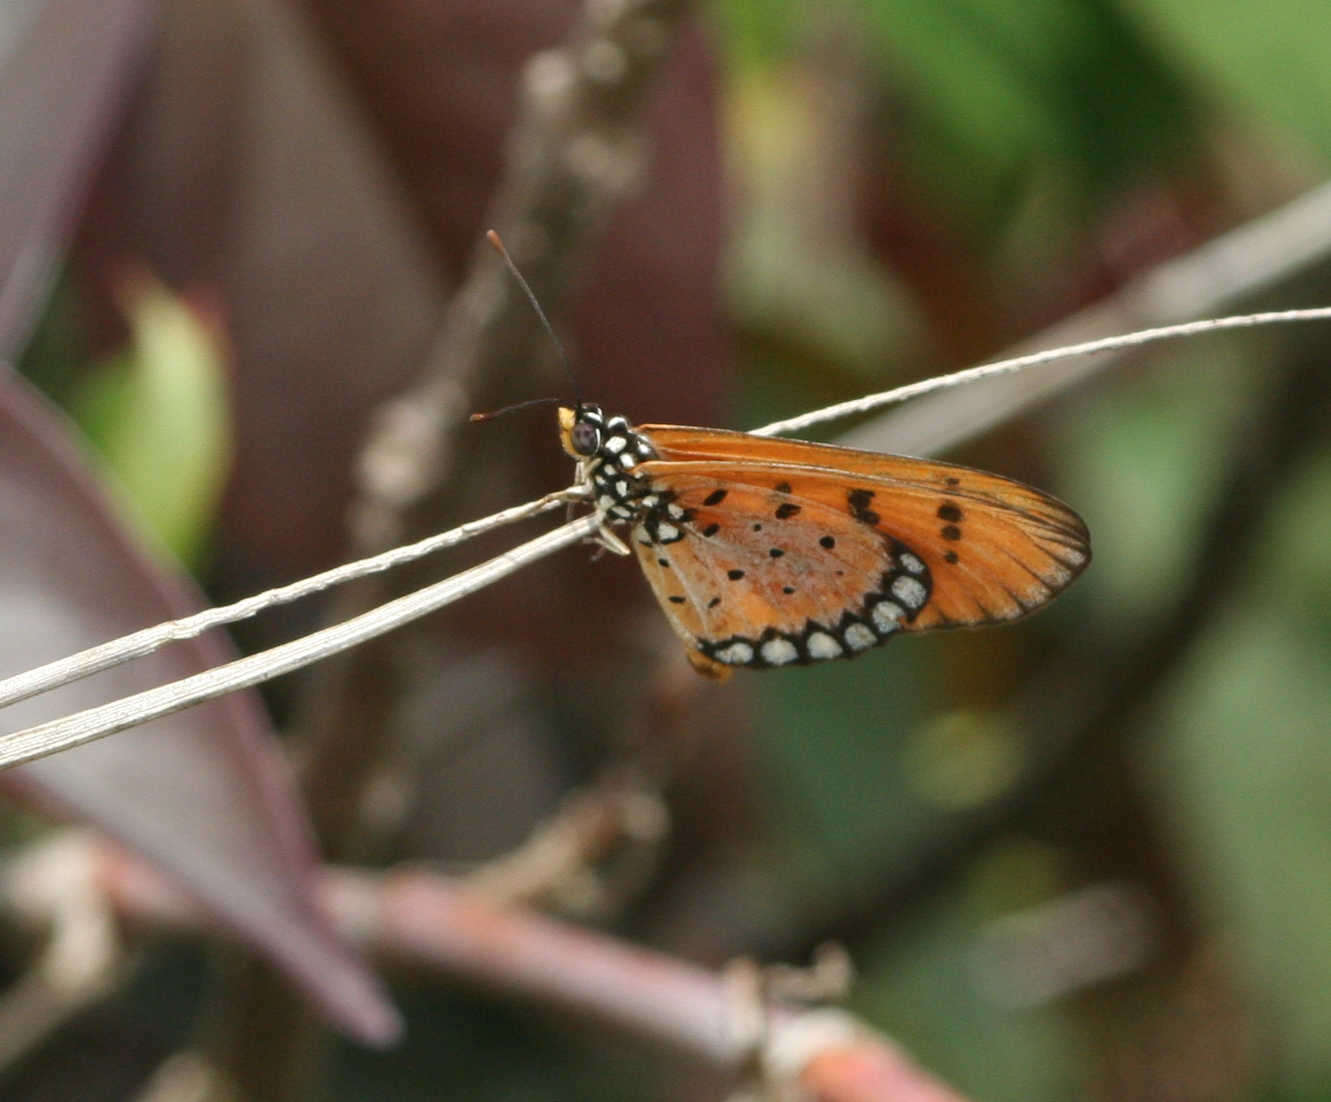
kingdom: Animalia
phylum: Arthropoda
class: Insecta
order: Lepidoptera
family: Nymphalidae
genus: Acraea
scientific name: Acraea terpsicore
